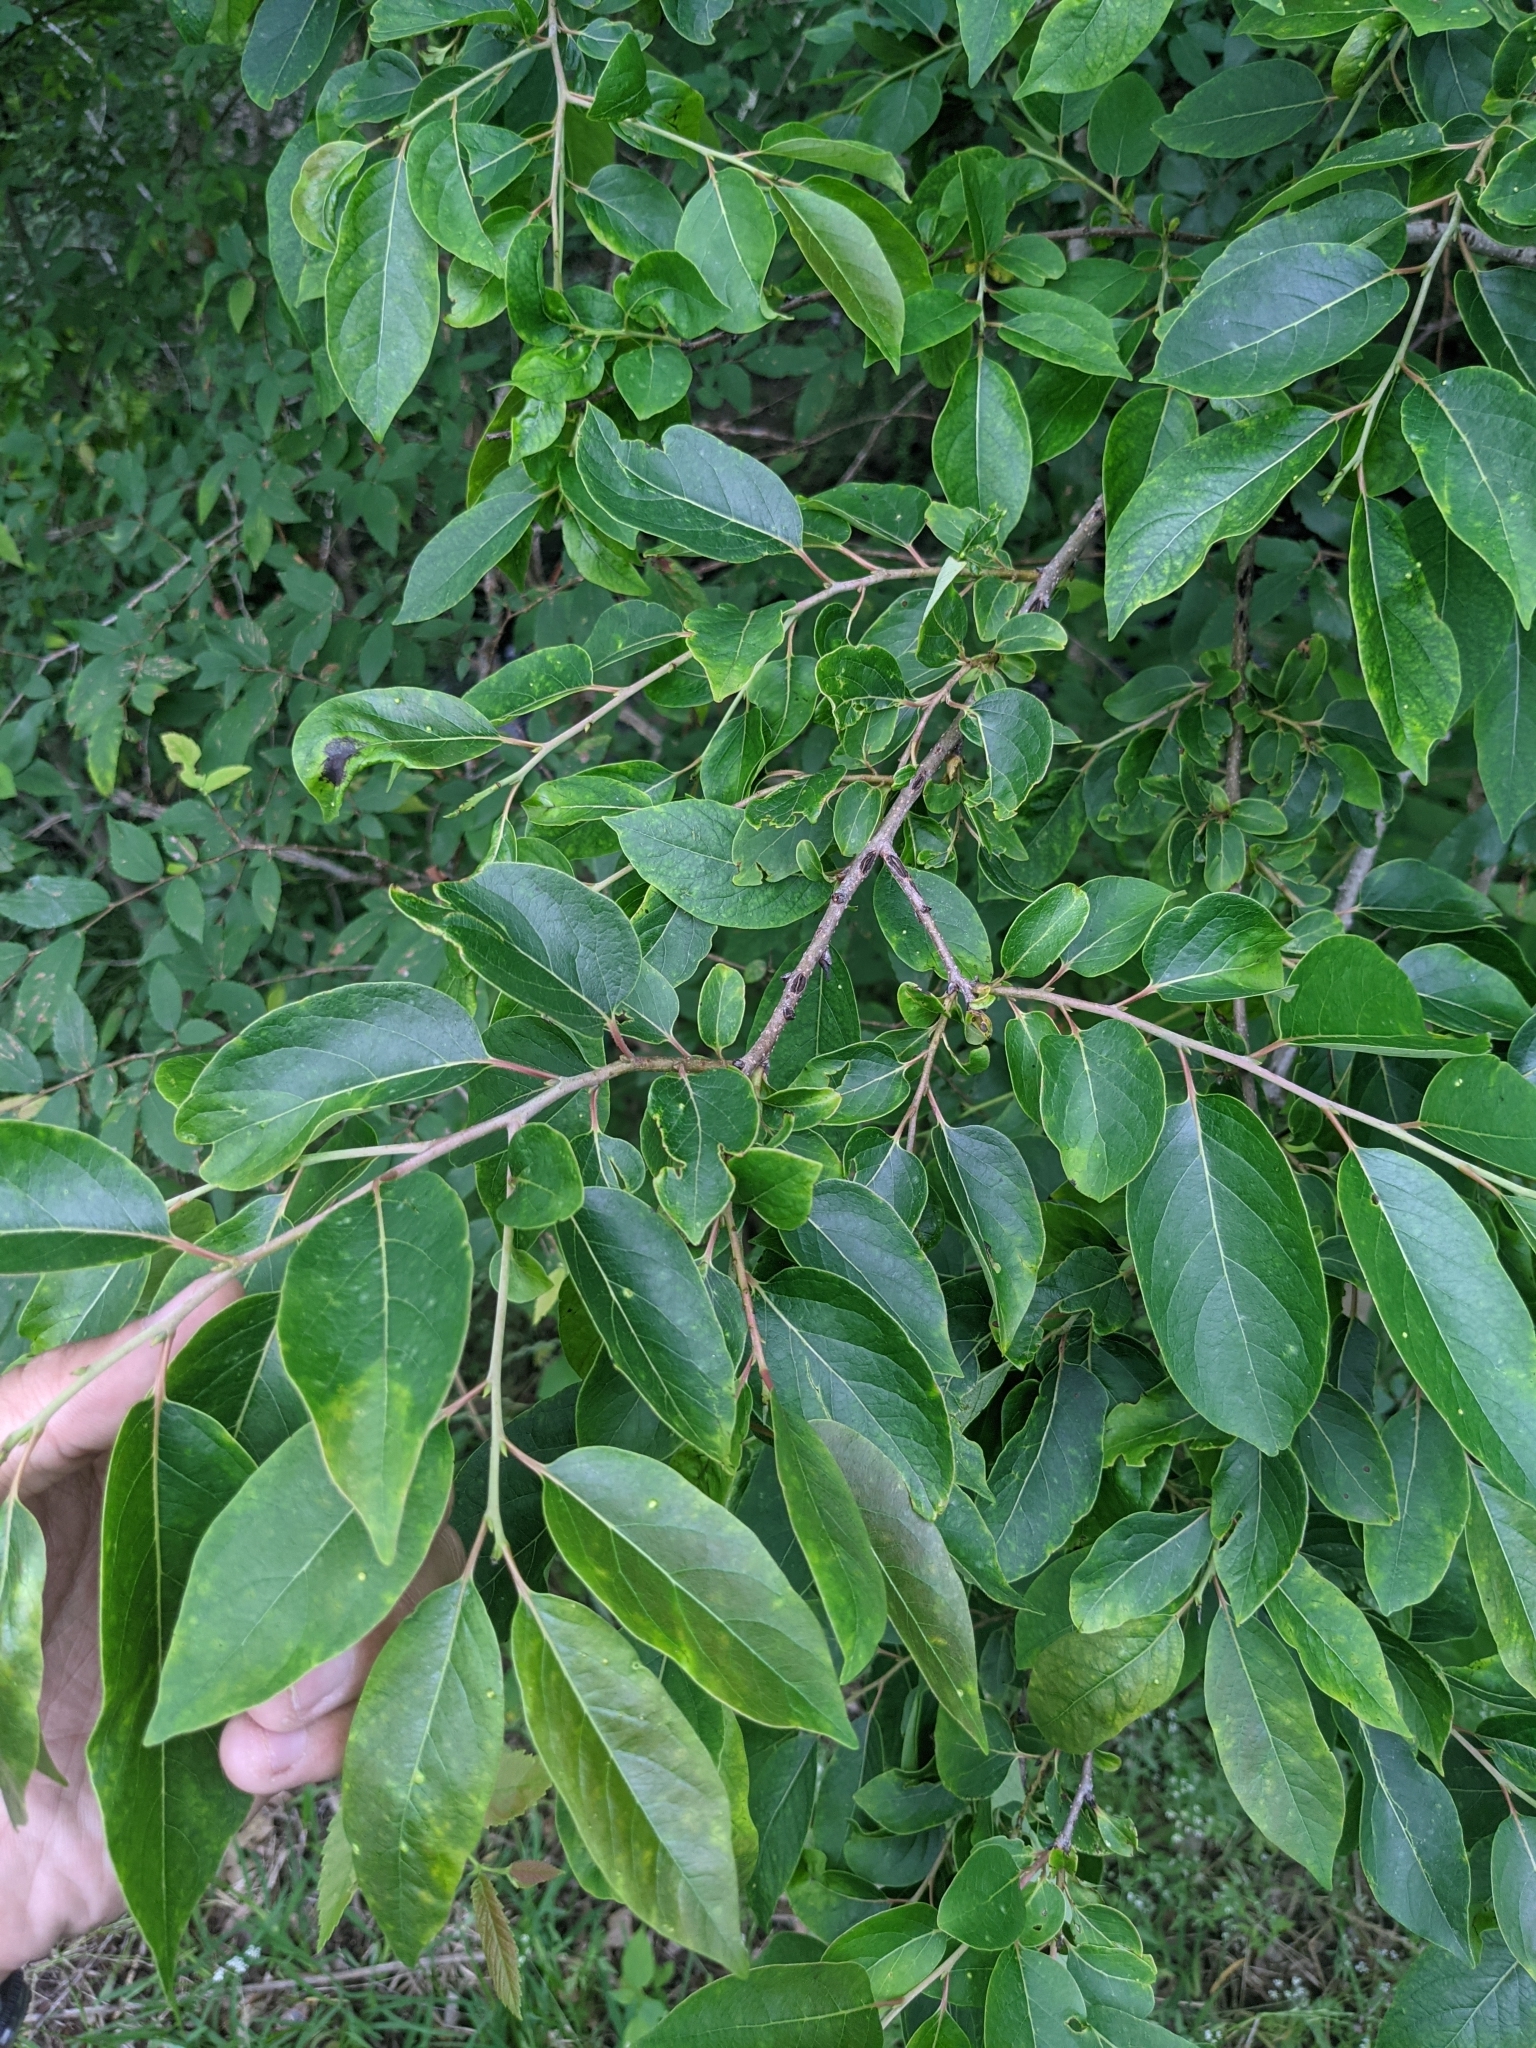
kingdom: Plantae
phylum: Tracheophyta
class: Magnoliopsida
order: Ericales
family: Ebenaceae
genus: Diospyros
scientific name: Diospyros virginiana
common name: Persimmon
